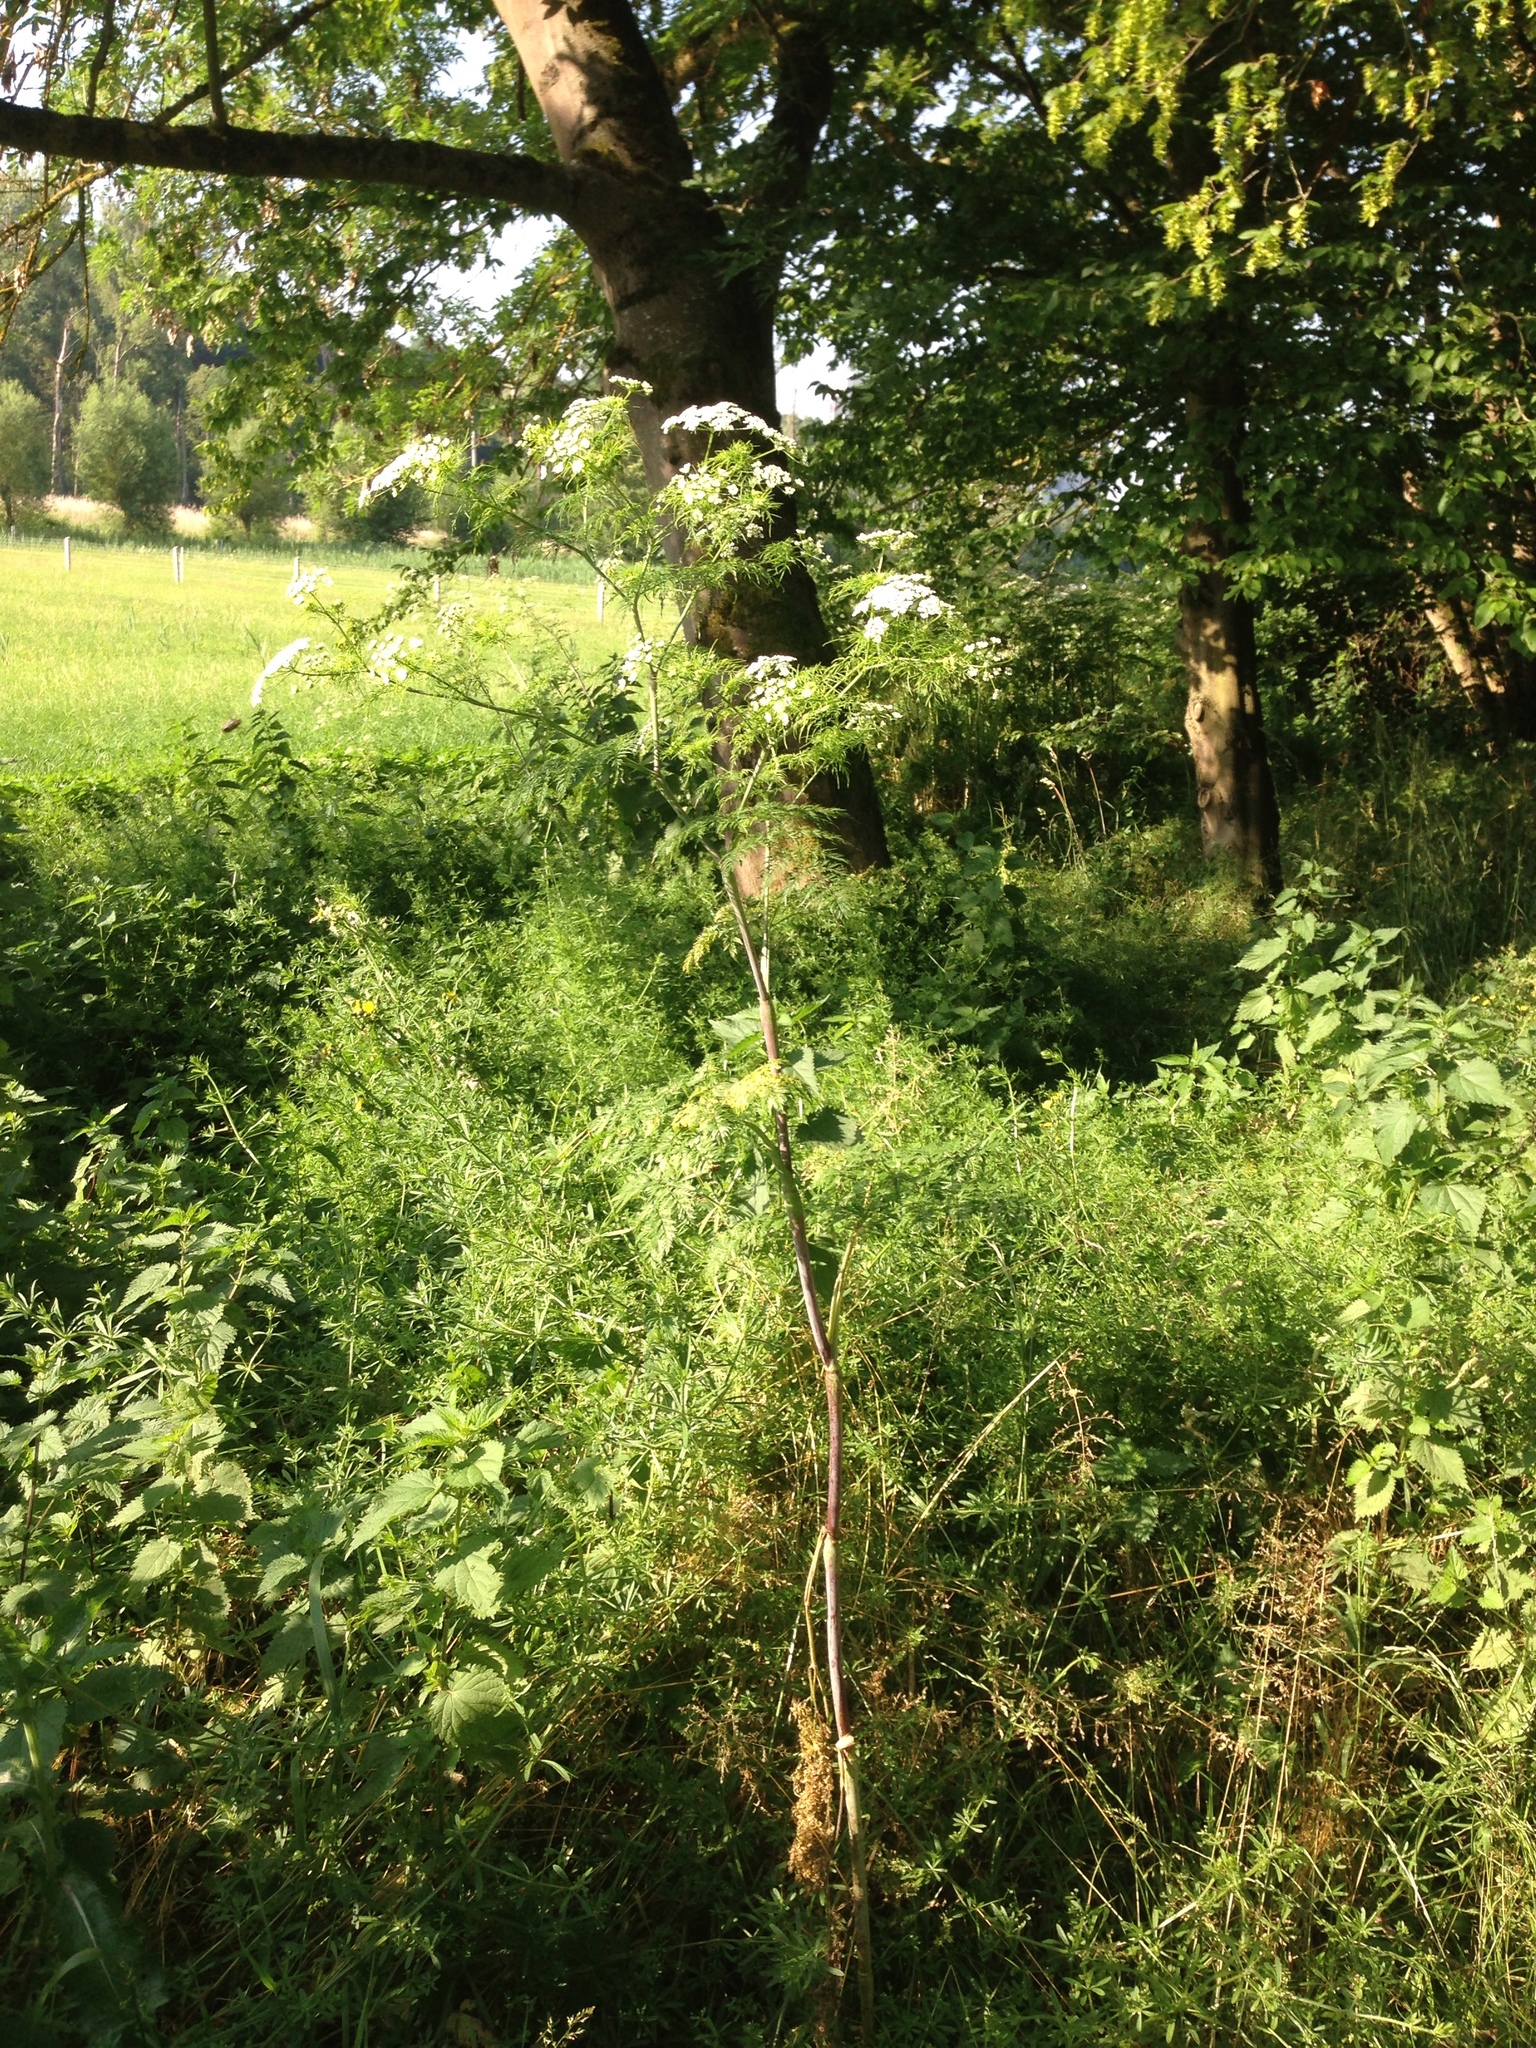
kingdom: Plantae
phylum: Tracheophyta
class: Magnoliopsida
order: Apiales
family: Apiaceae
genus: Chaerophyllum
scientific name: Chaerophyllum bulbosum
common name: Bulbous chervil
